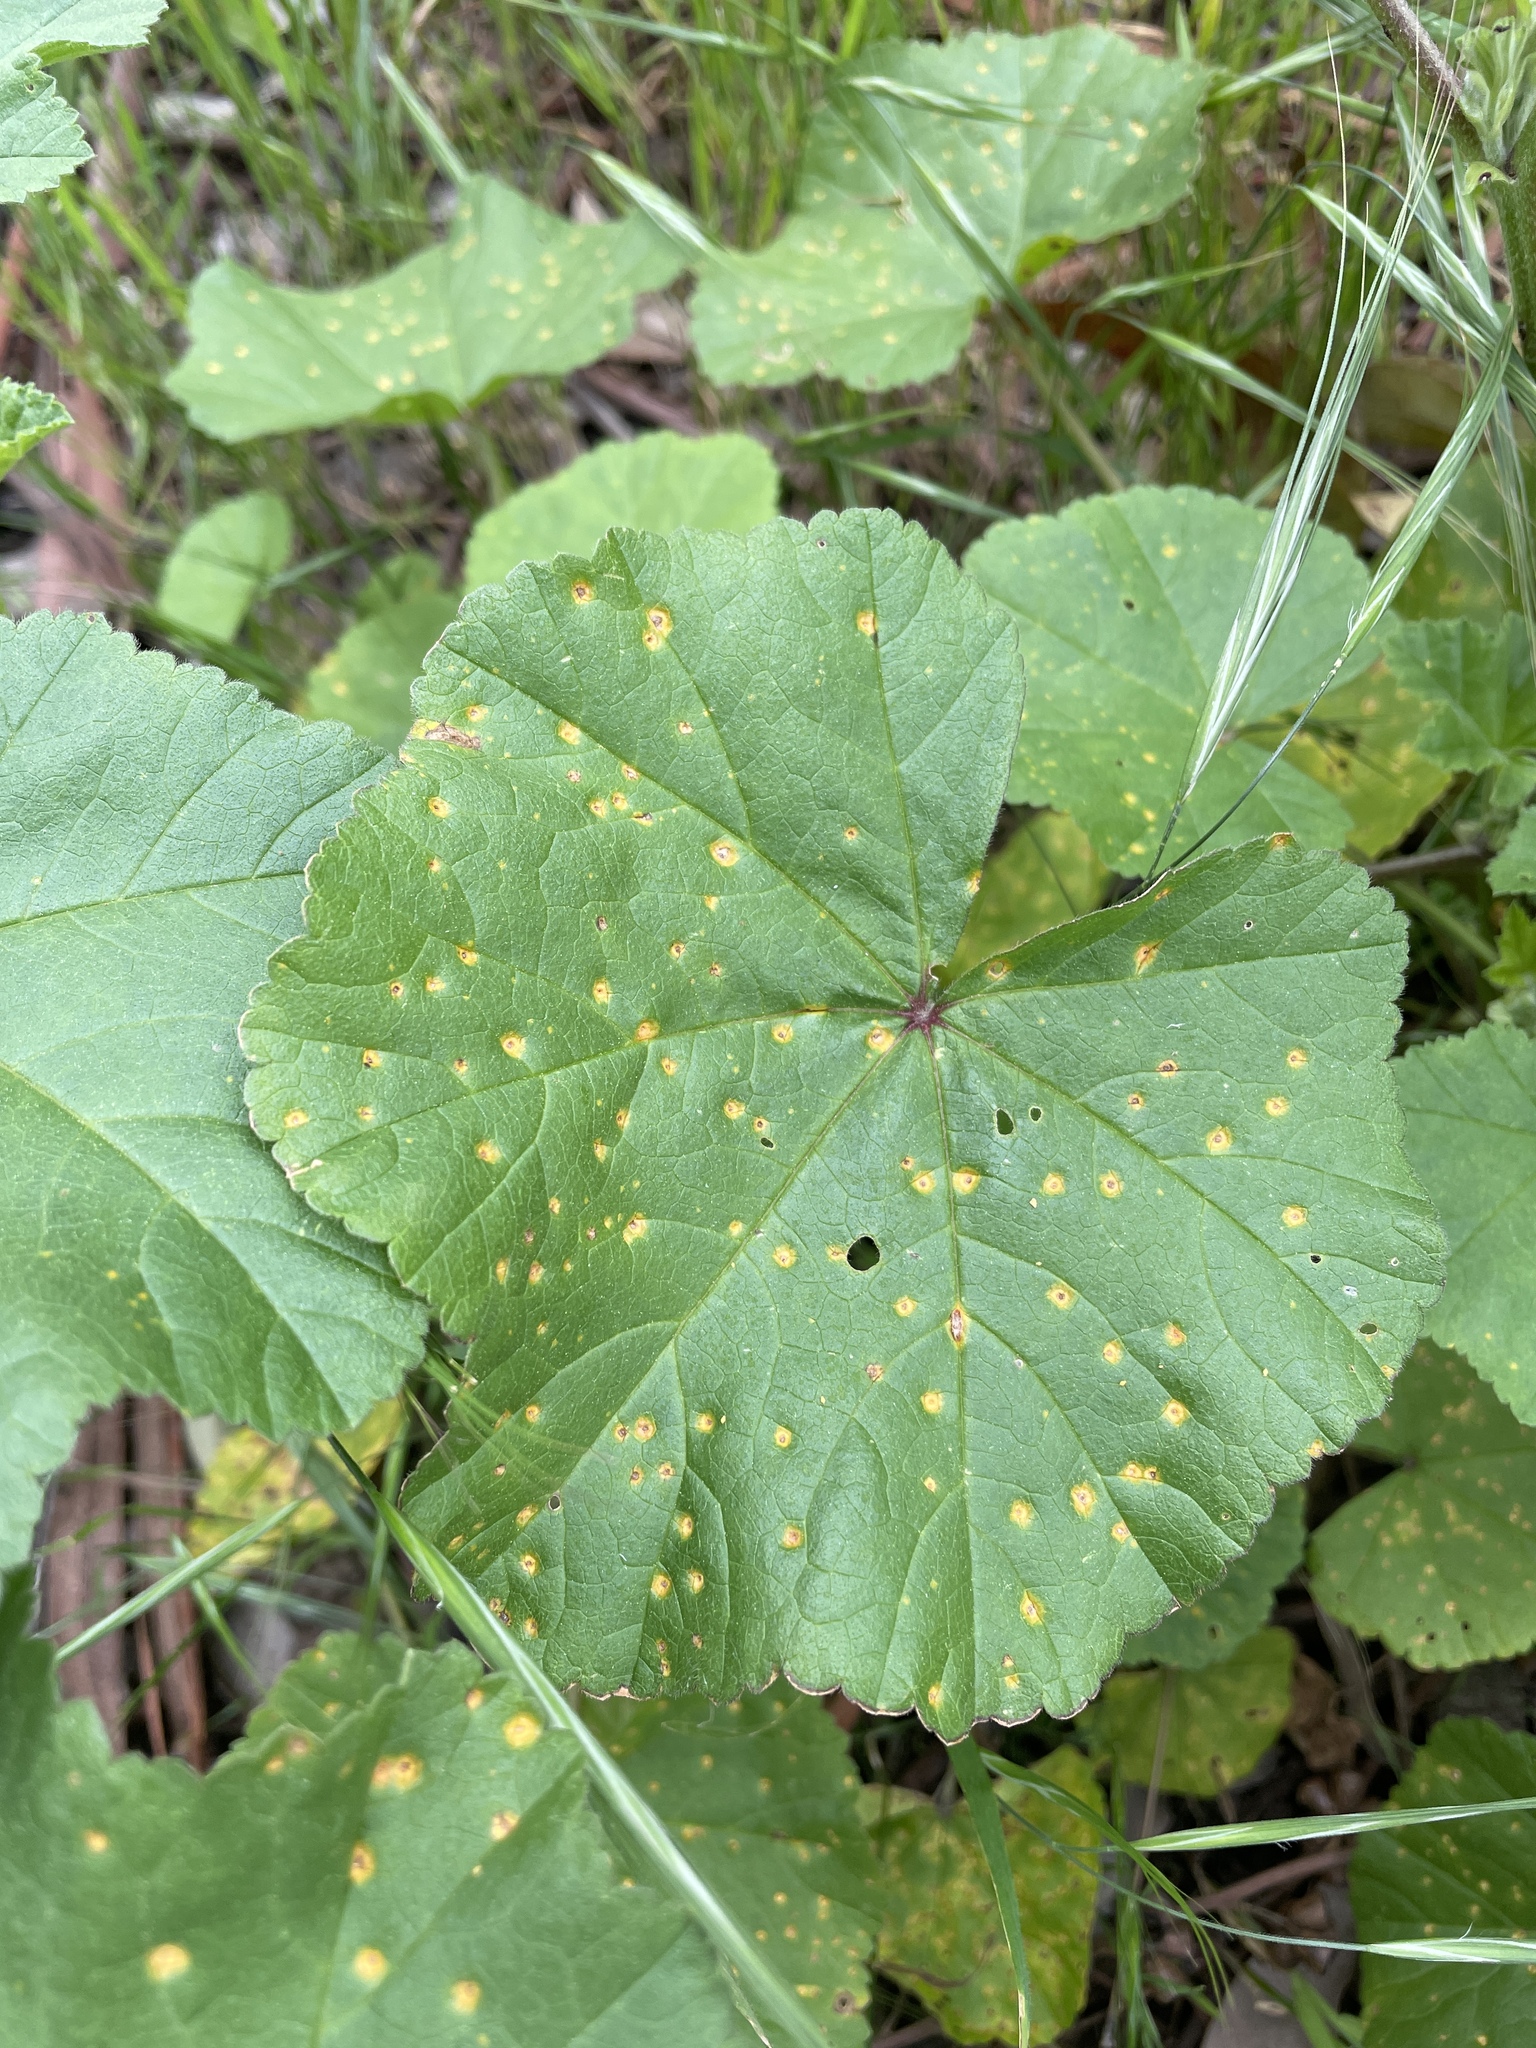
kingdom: Fungi
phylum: Basidiomycota
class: Pucciniomycetes
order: Pucciniales
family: Pucciniaceae
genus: Puccinia
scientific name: Puccinia malvacearum
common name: Hollyhock rust
